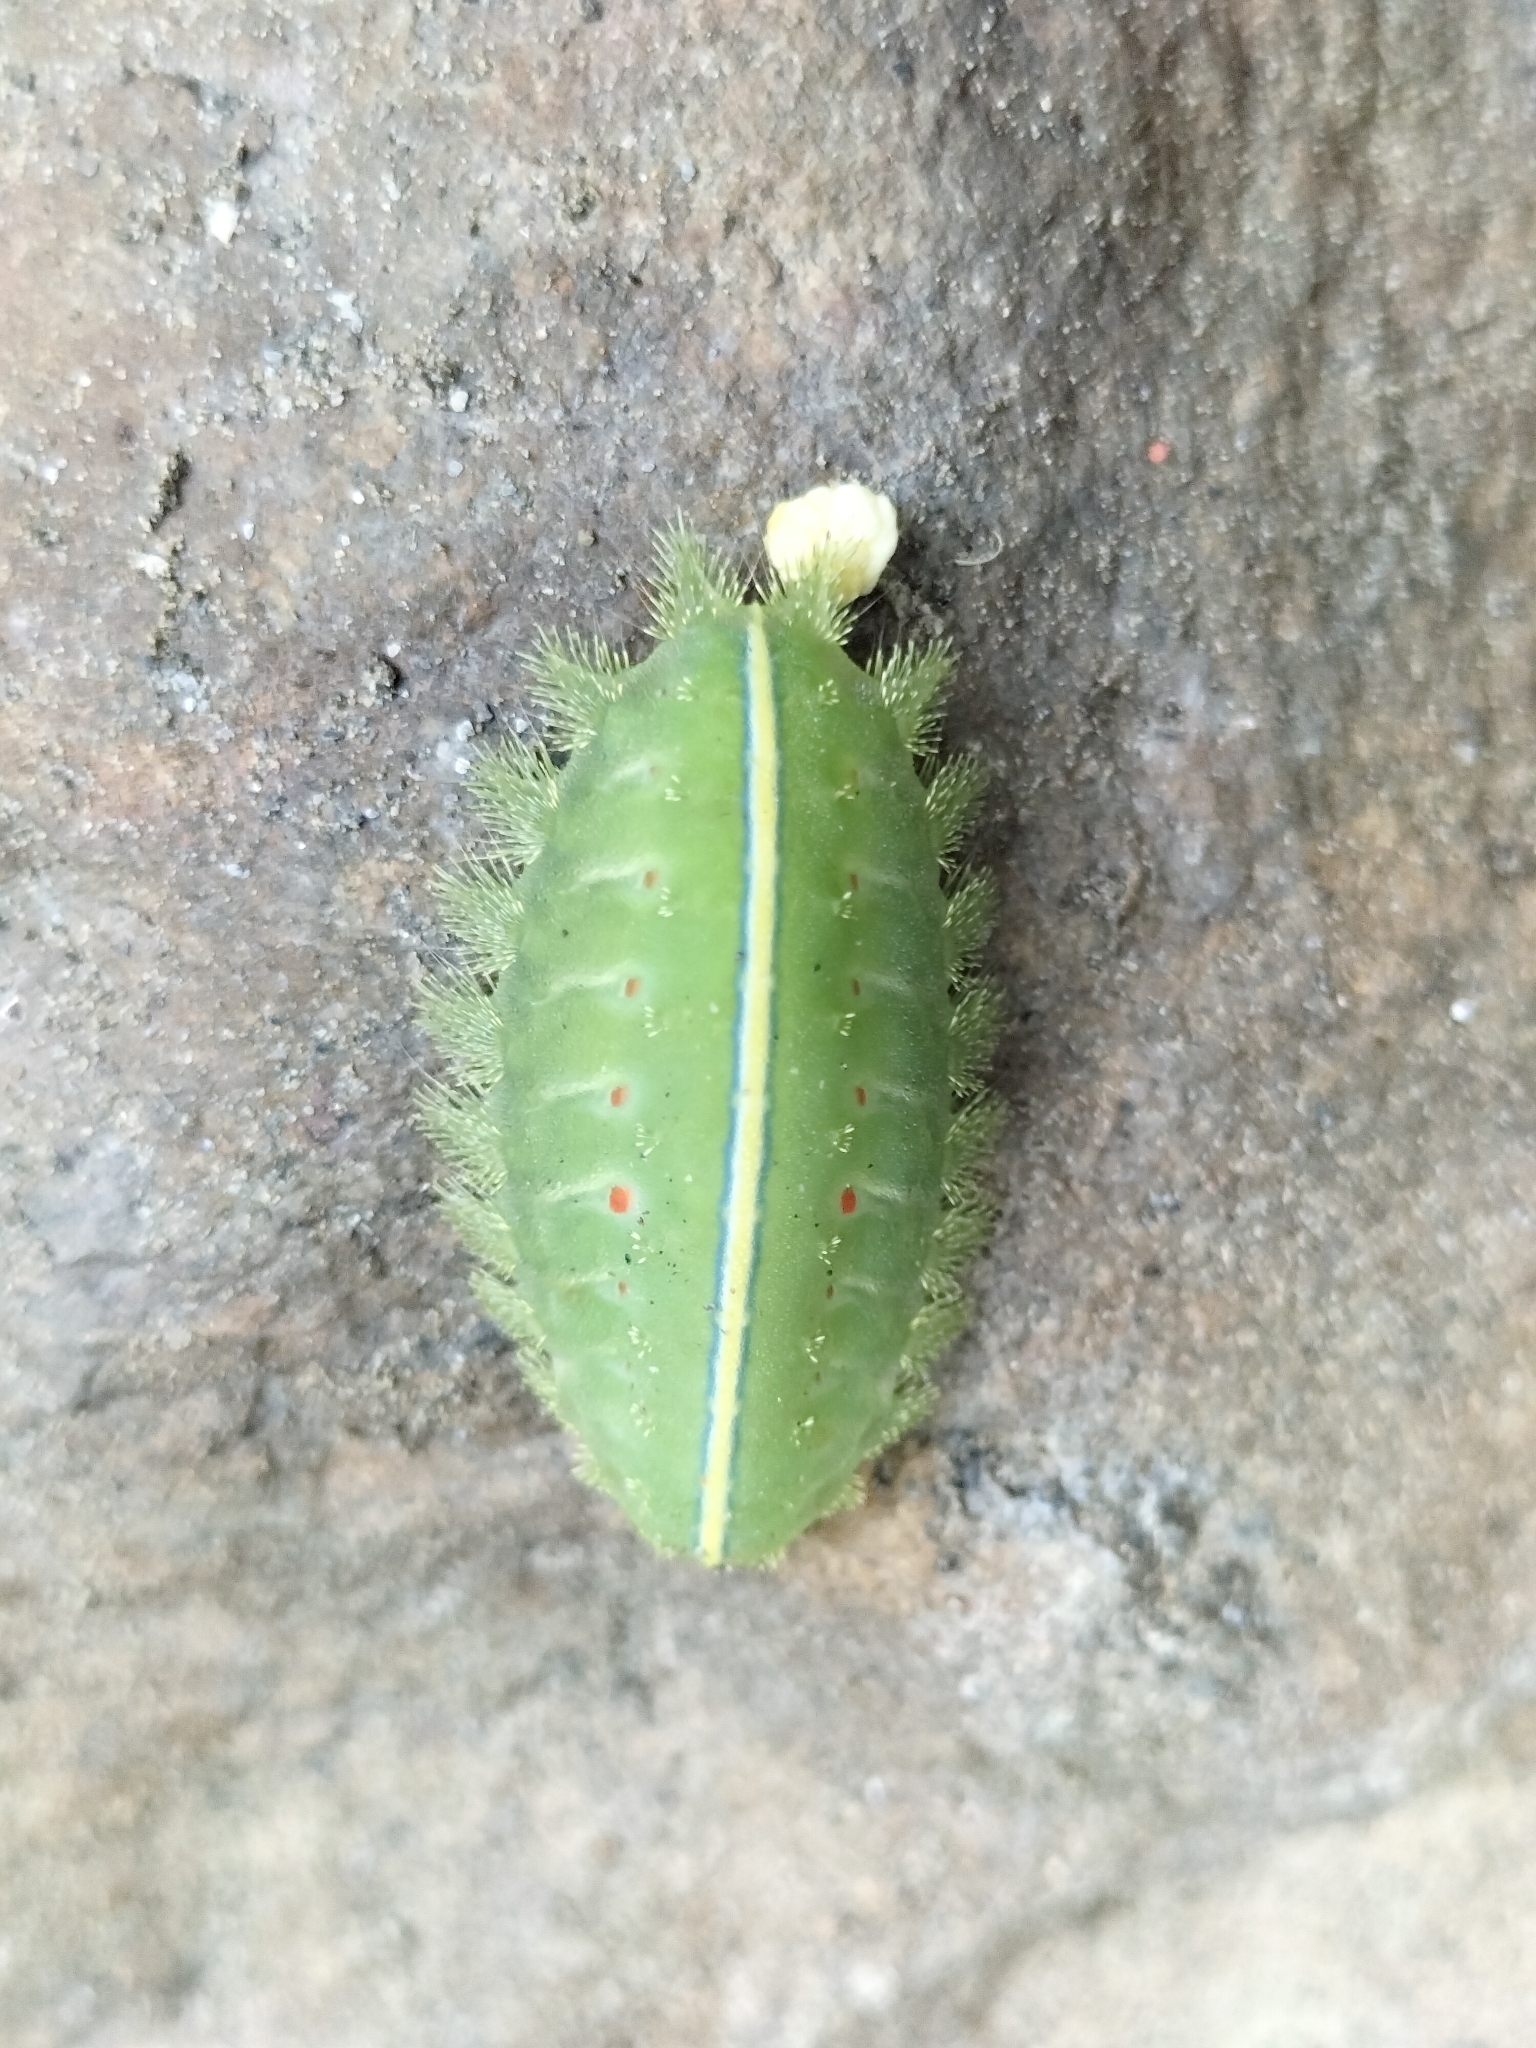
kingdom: Animalia
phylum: Arthropoda
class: Insecta
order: Lepidoptera
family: Limacodidae
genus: Thosea
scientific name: Thosea sinensis
